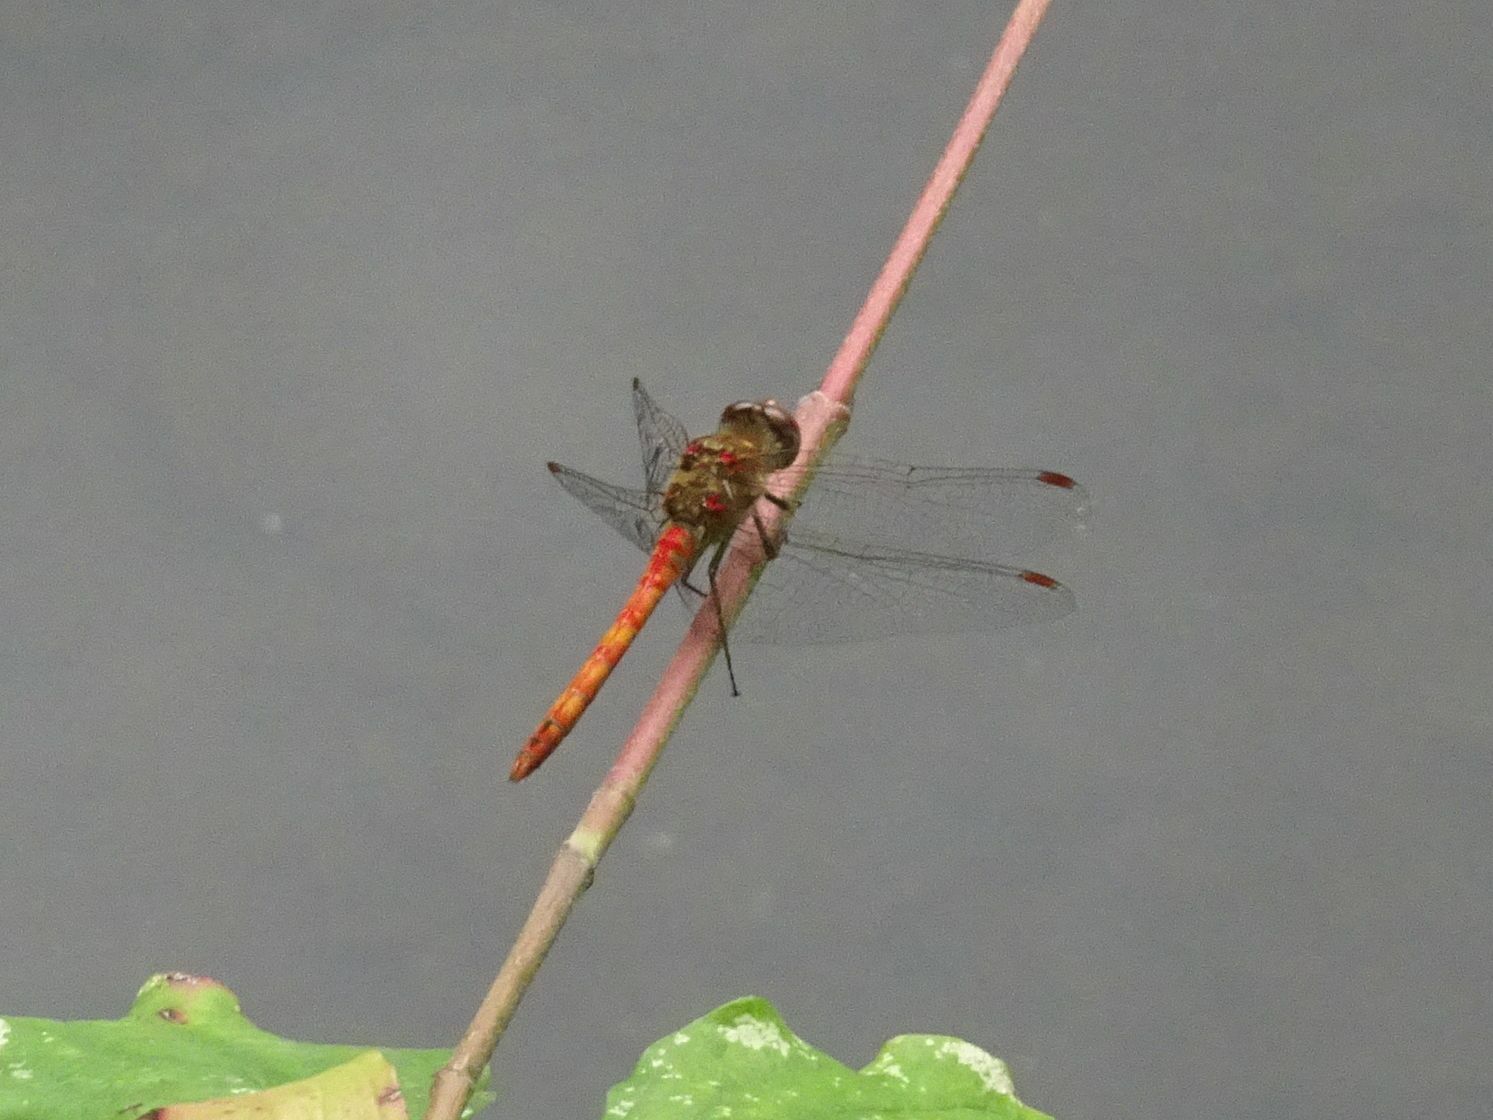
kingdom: Animalia
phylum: Arthropoda
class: Insecta
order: Odonata
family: Libellulidae
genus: Sympetrum
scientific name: Sympetrum striolatum
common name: Common darter
